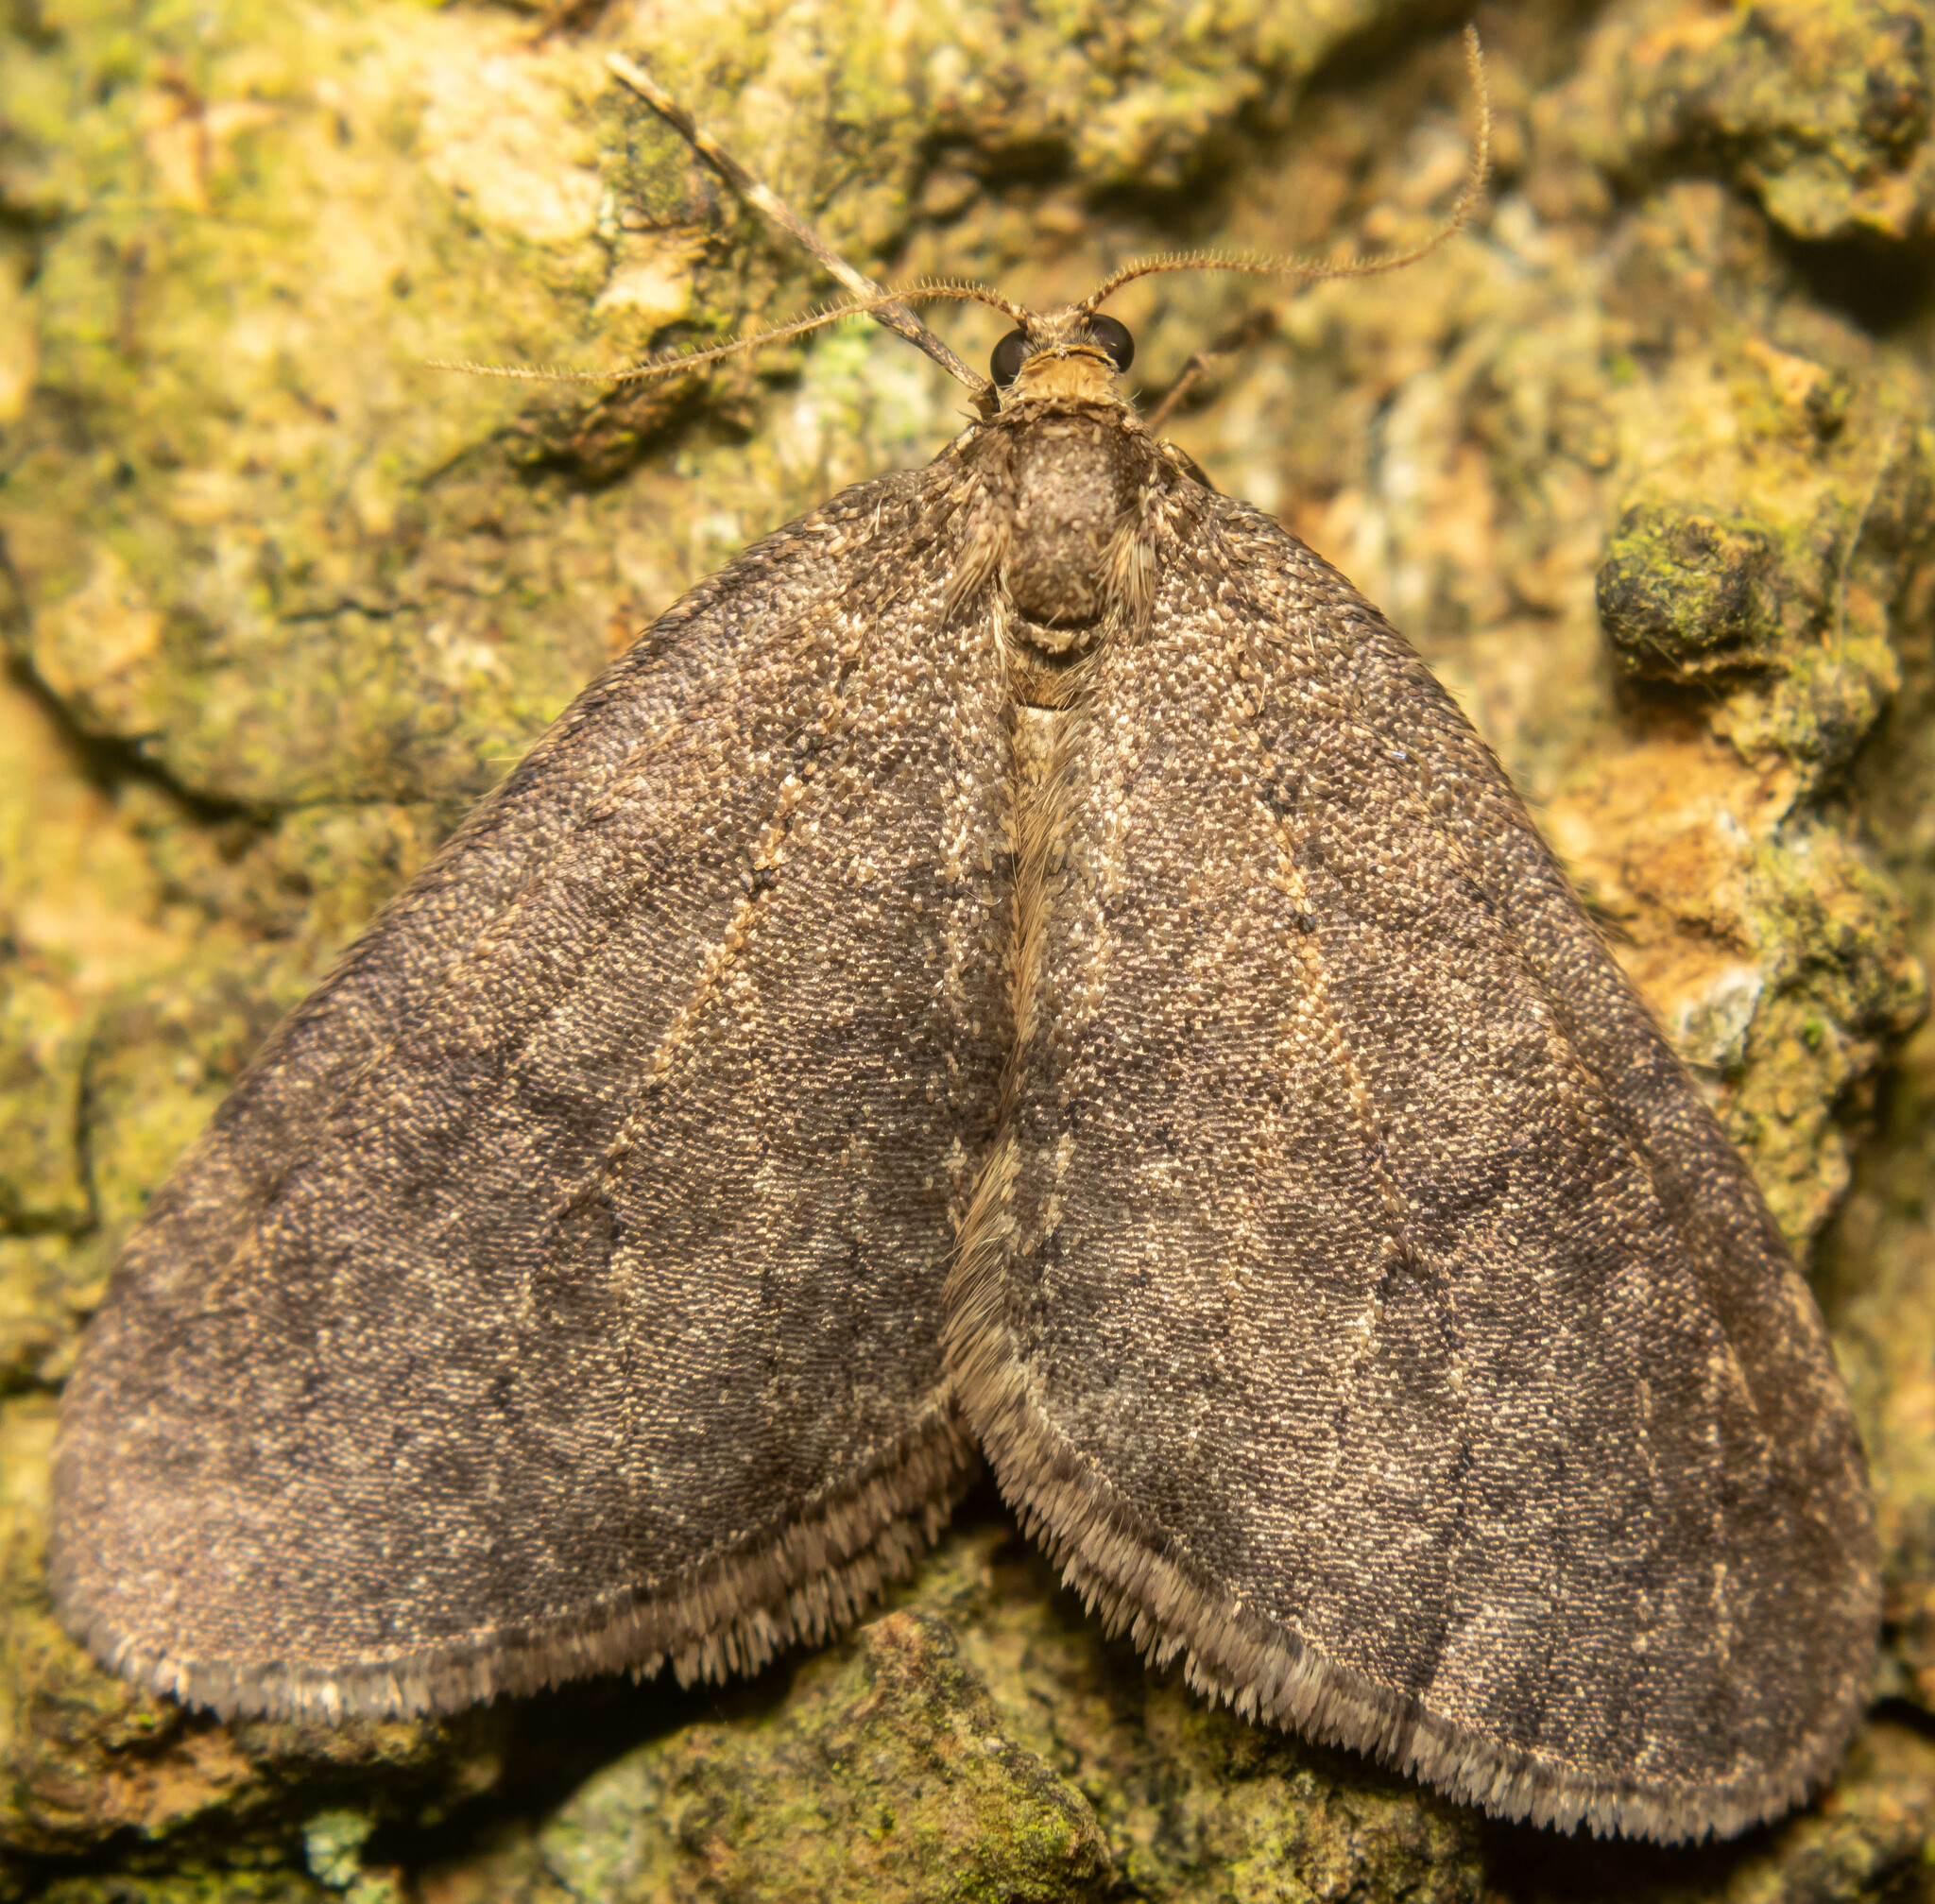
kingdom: Animalia
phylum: Arthropoda
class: Insecta
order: Lepidoptera
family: Geometridae
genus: Operophtera
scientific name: Operophtera brumata
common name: Winter moth
